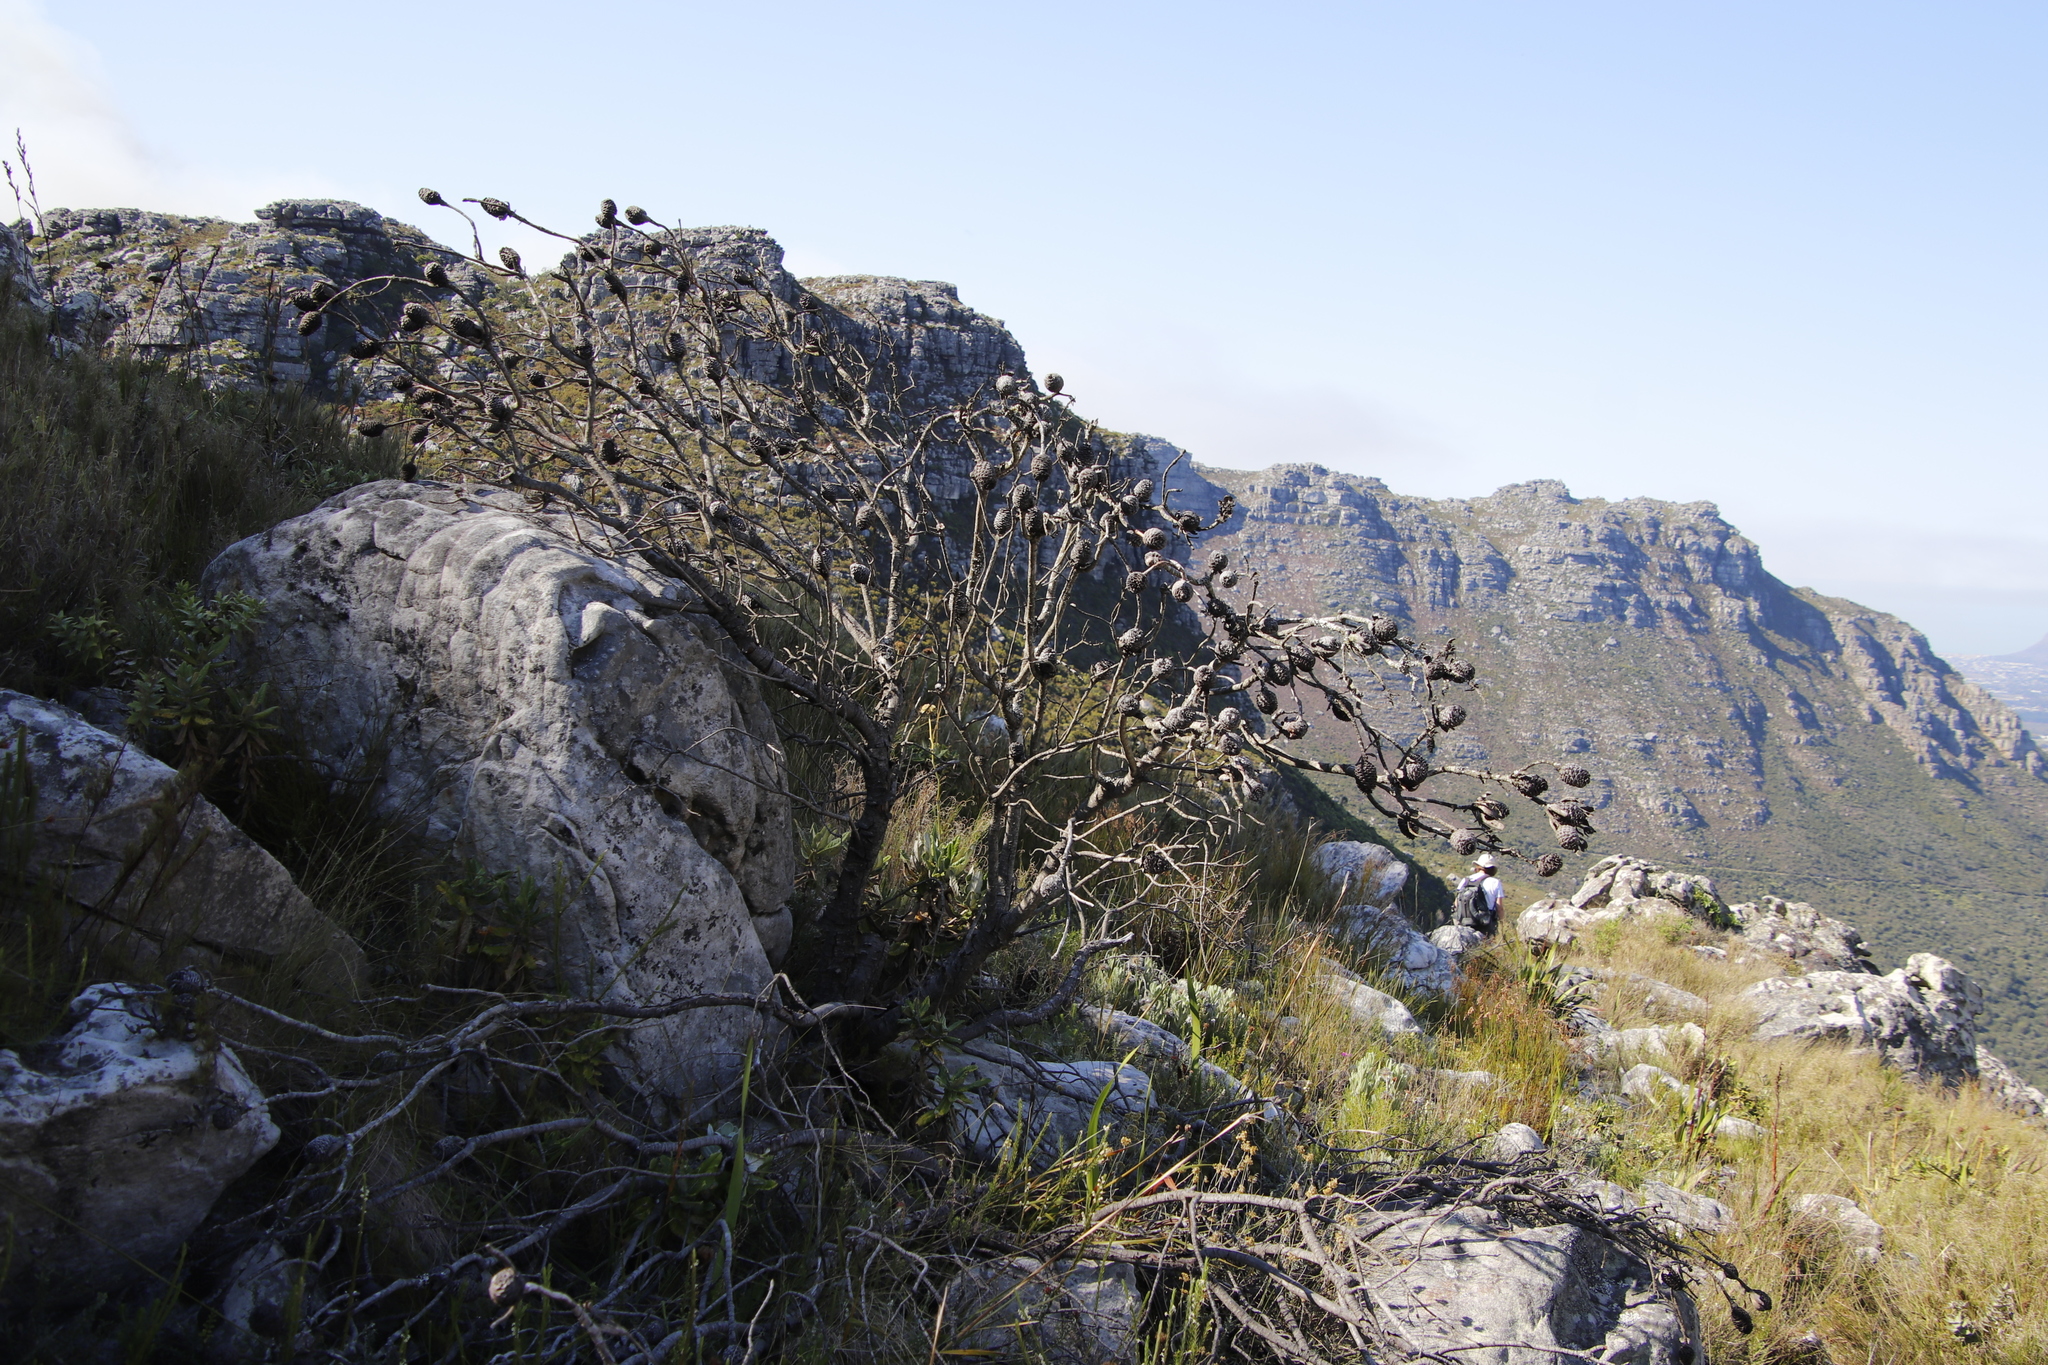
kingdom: Plantae
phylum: Tracheophyta
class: Magnoliopsida
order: Proteales
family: Proteaceae
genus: Leucadendron
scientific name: Leucadendron strobilinum
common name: Mountain rose
